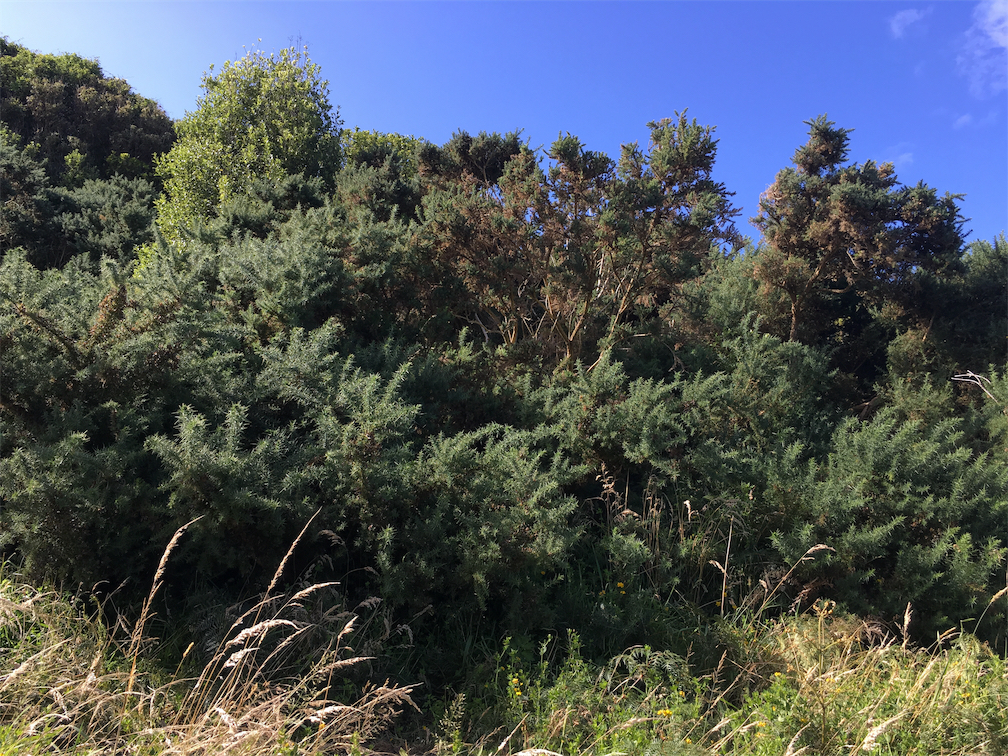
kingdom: Plantae
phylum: Tracheophyta
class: Magnoliopsida
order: Fabales
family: Fabaceae
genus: Ulex
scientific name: Ulex europaeus
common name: Common gorse
